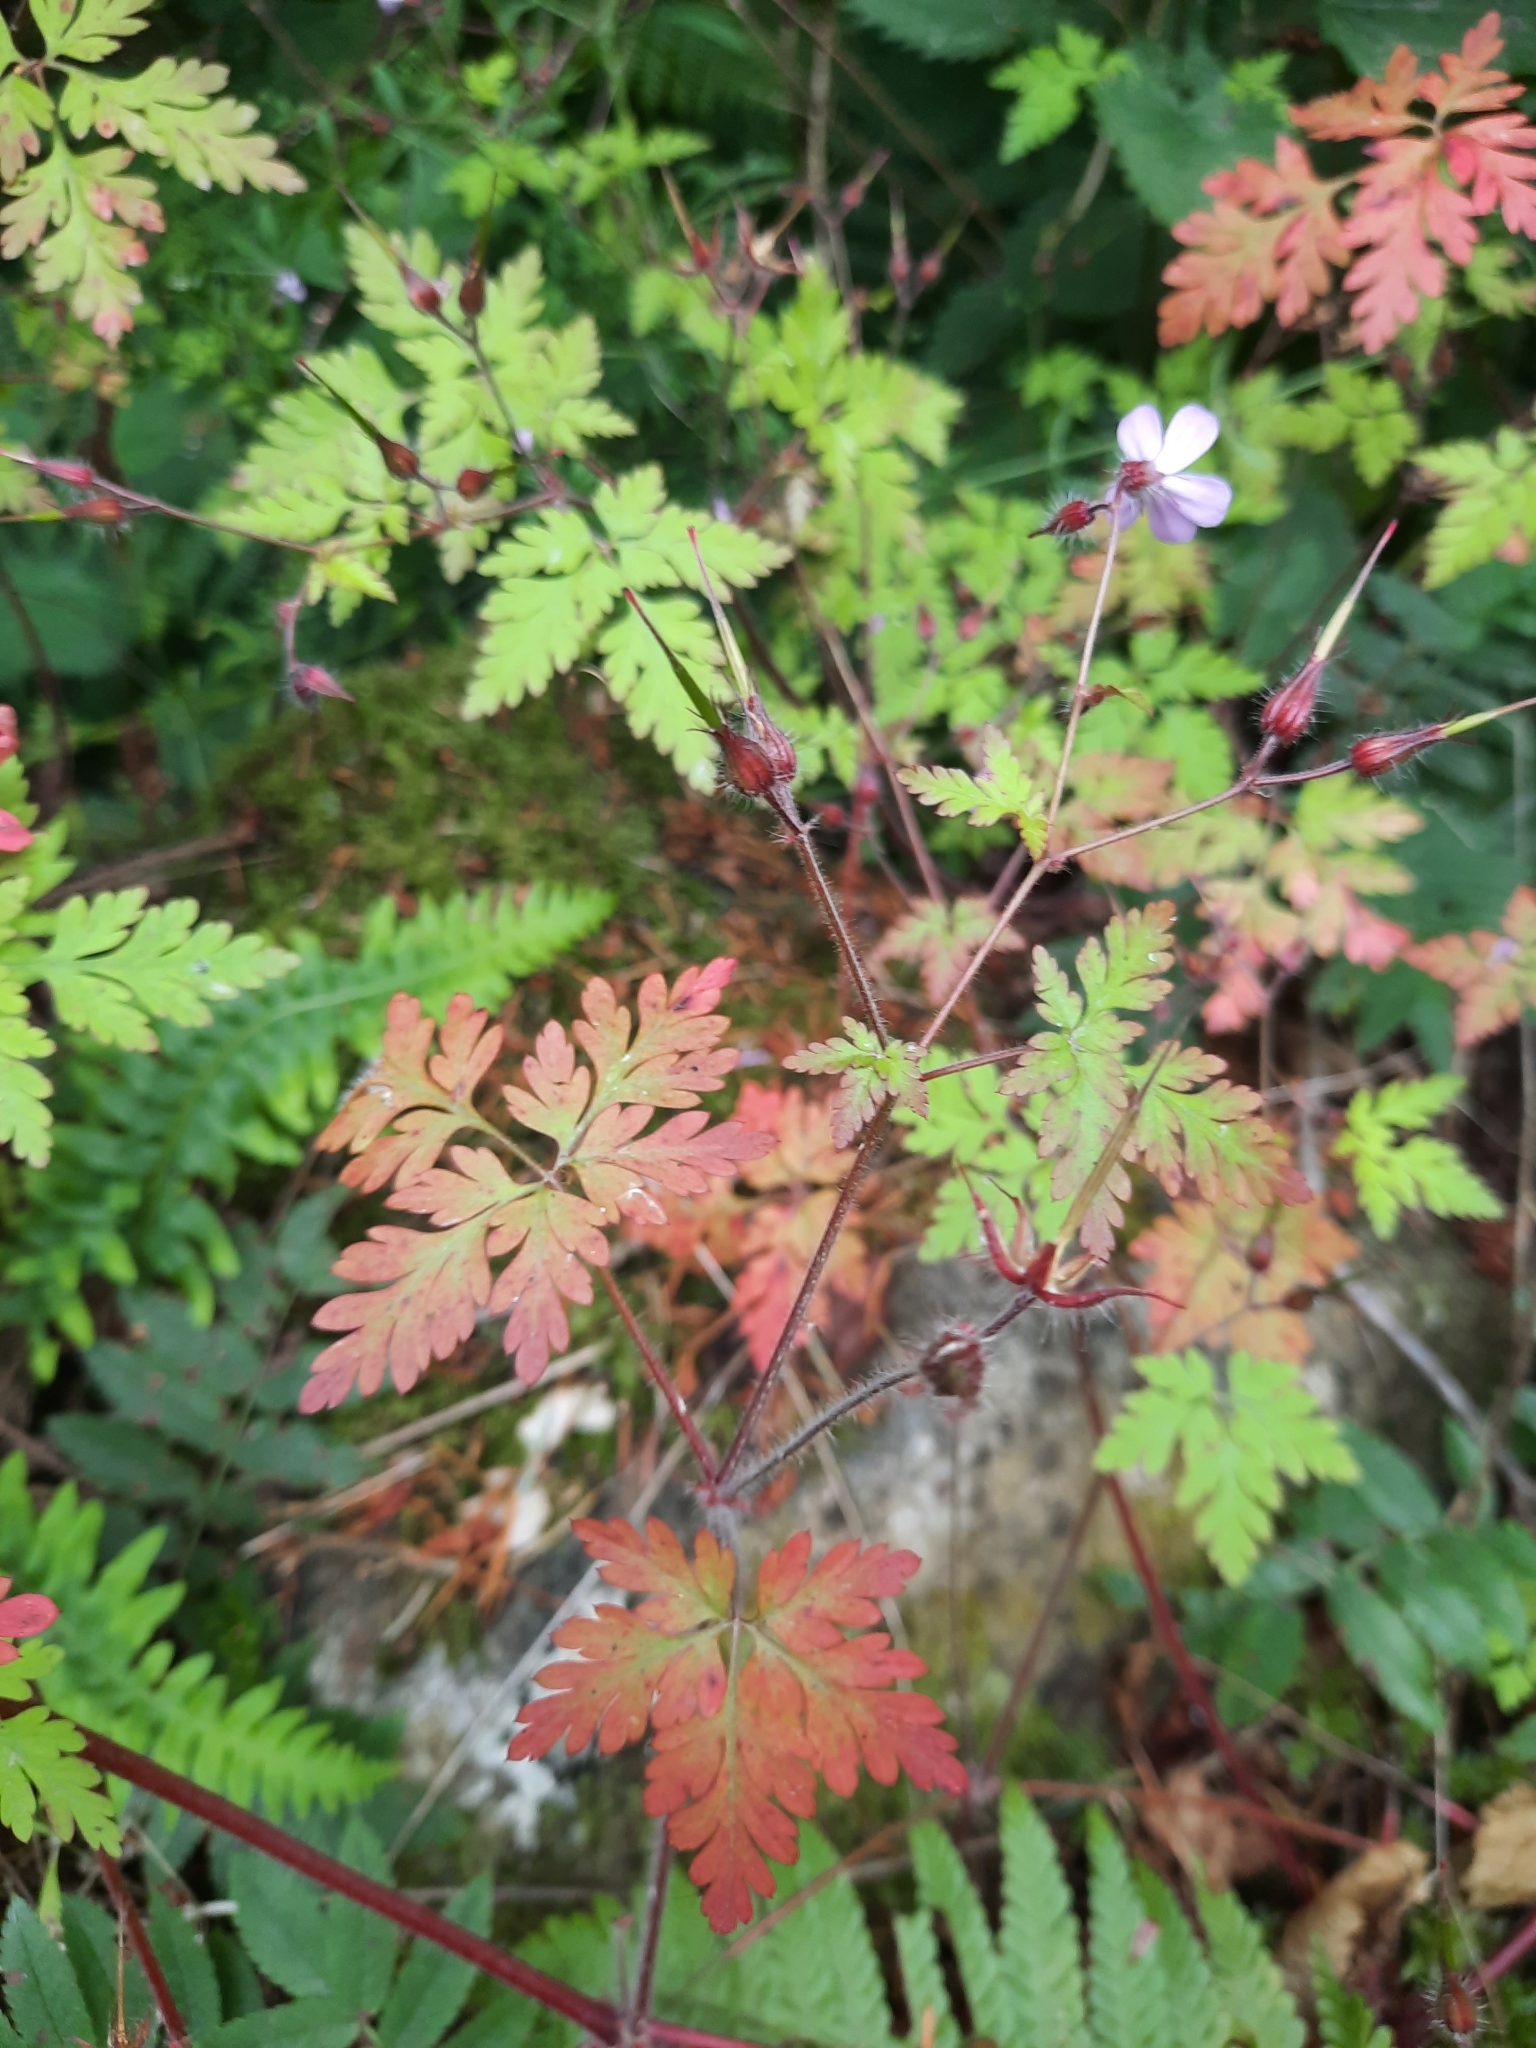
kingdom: Plantae
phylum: Tracheophyta
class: Magnoliopsida
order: Geraniales
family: Geraniaceae
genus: Geranium
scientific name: Geranium robertianum
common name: Herb-robert
